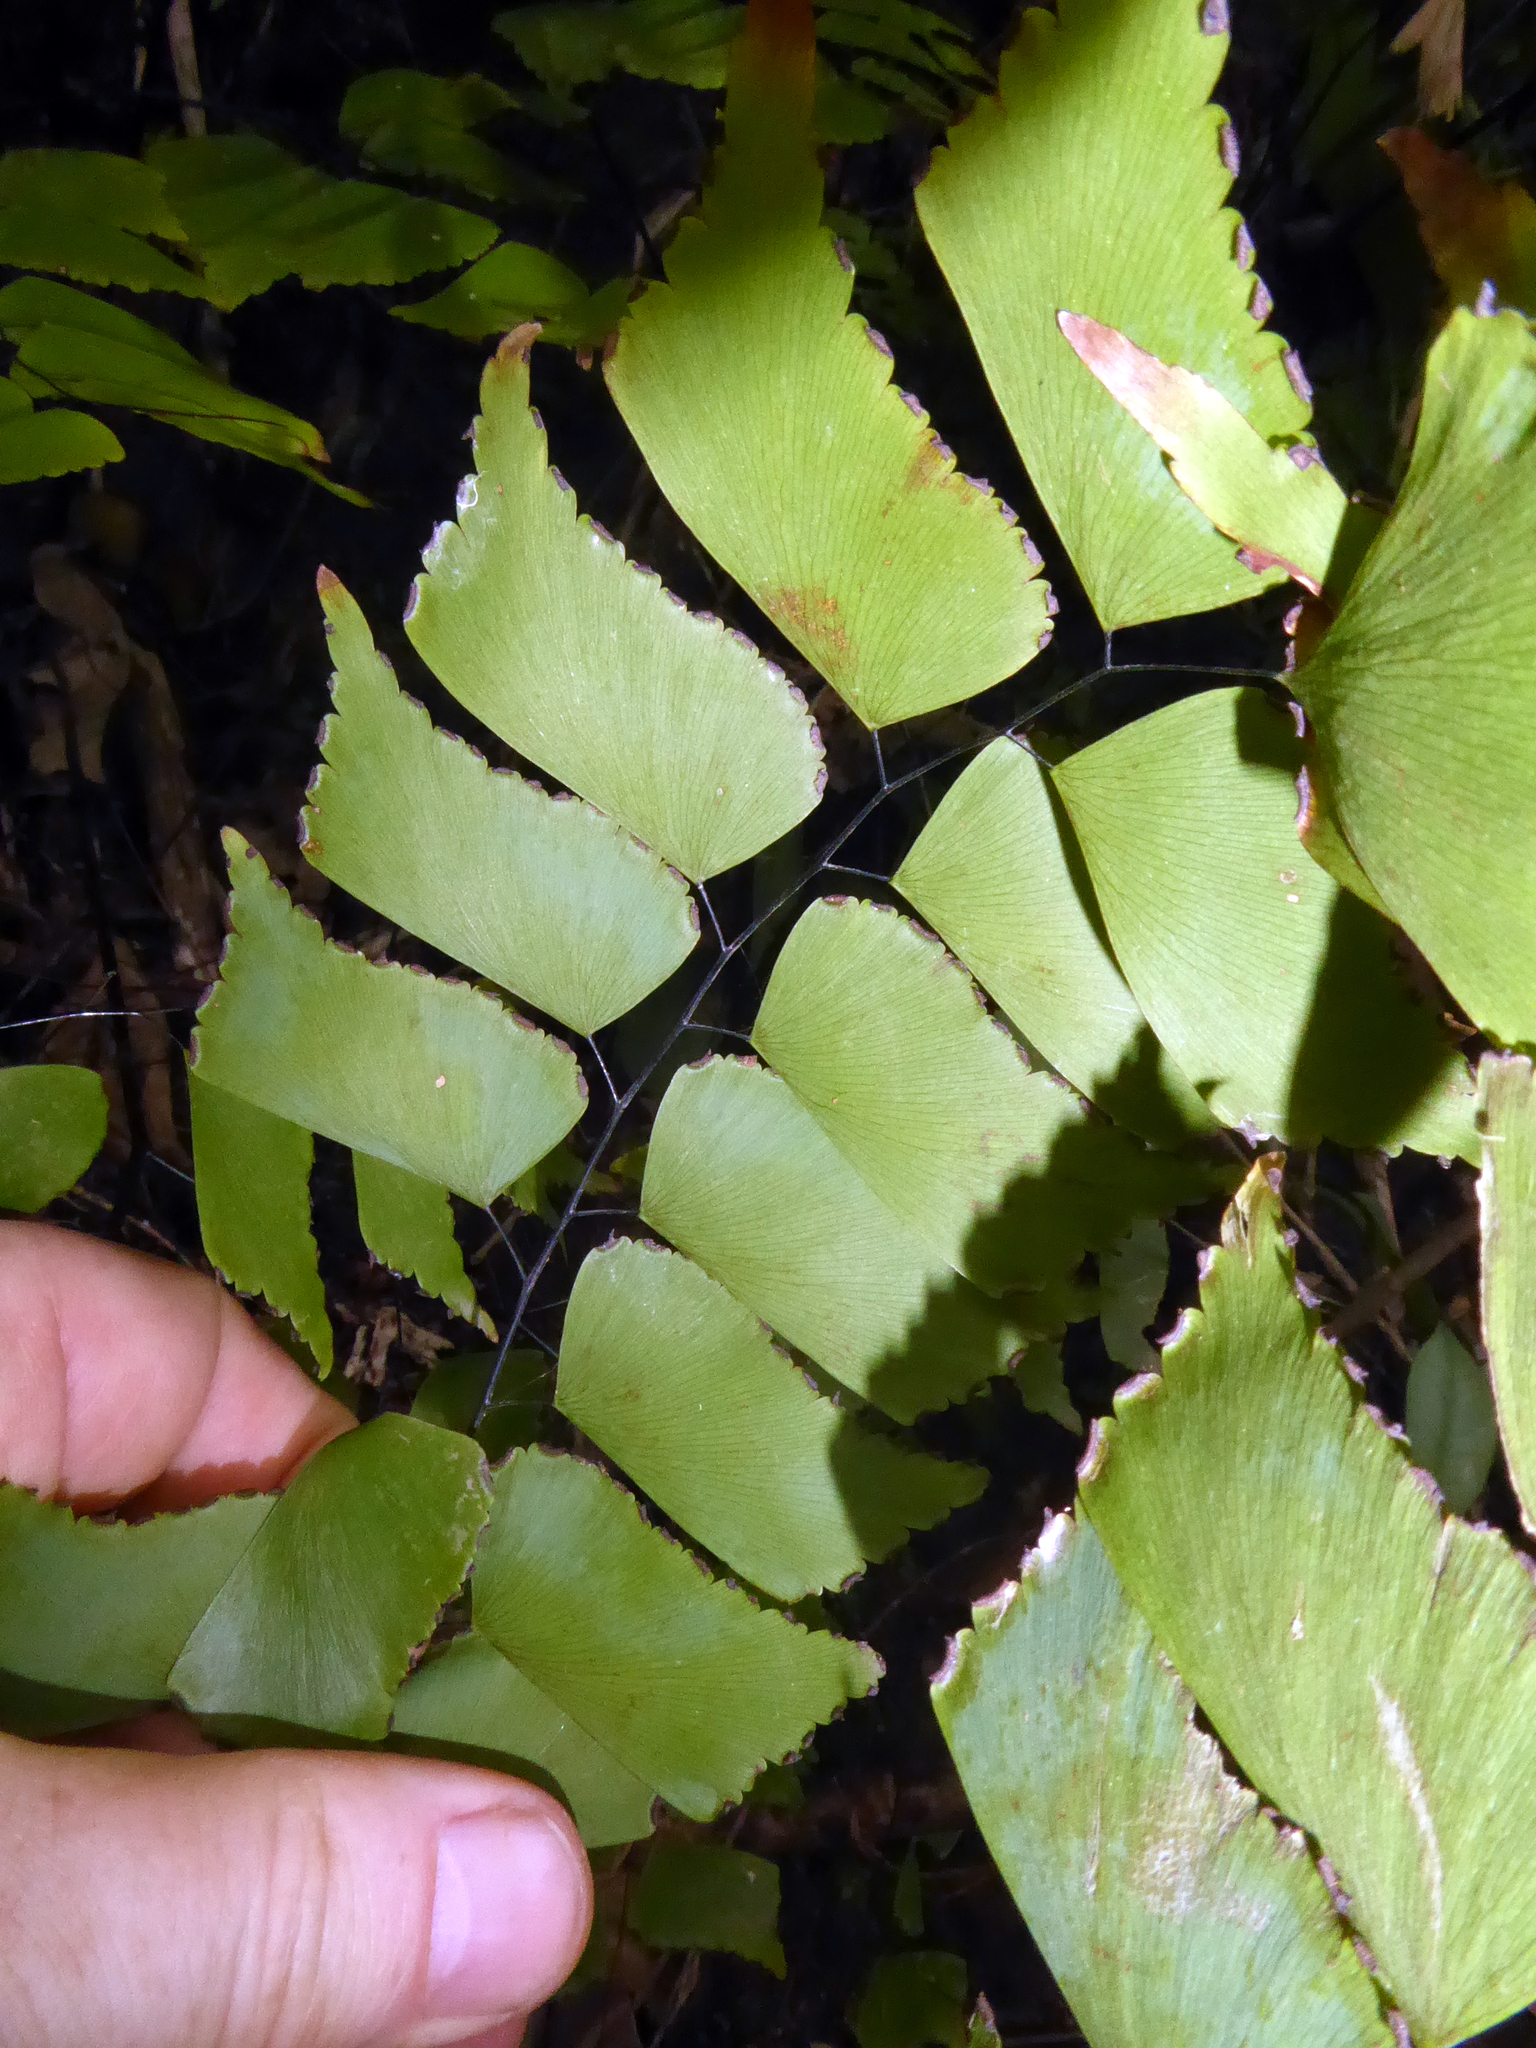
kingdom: Plantae
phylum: Tracheophyta
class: Polypodiopsida
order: Polypodiales
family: Pteridaceae
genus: Adiantum
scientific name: Adiantum trapeziforme
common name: Diamond maidenhair
